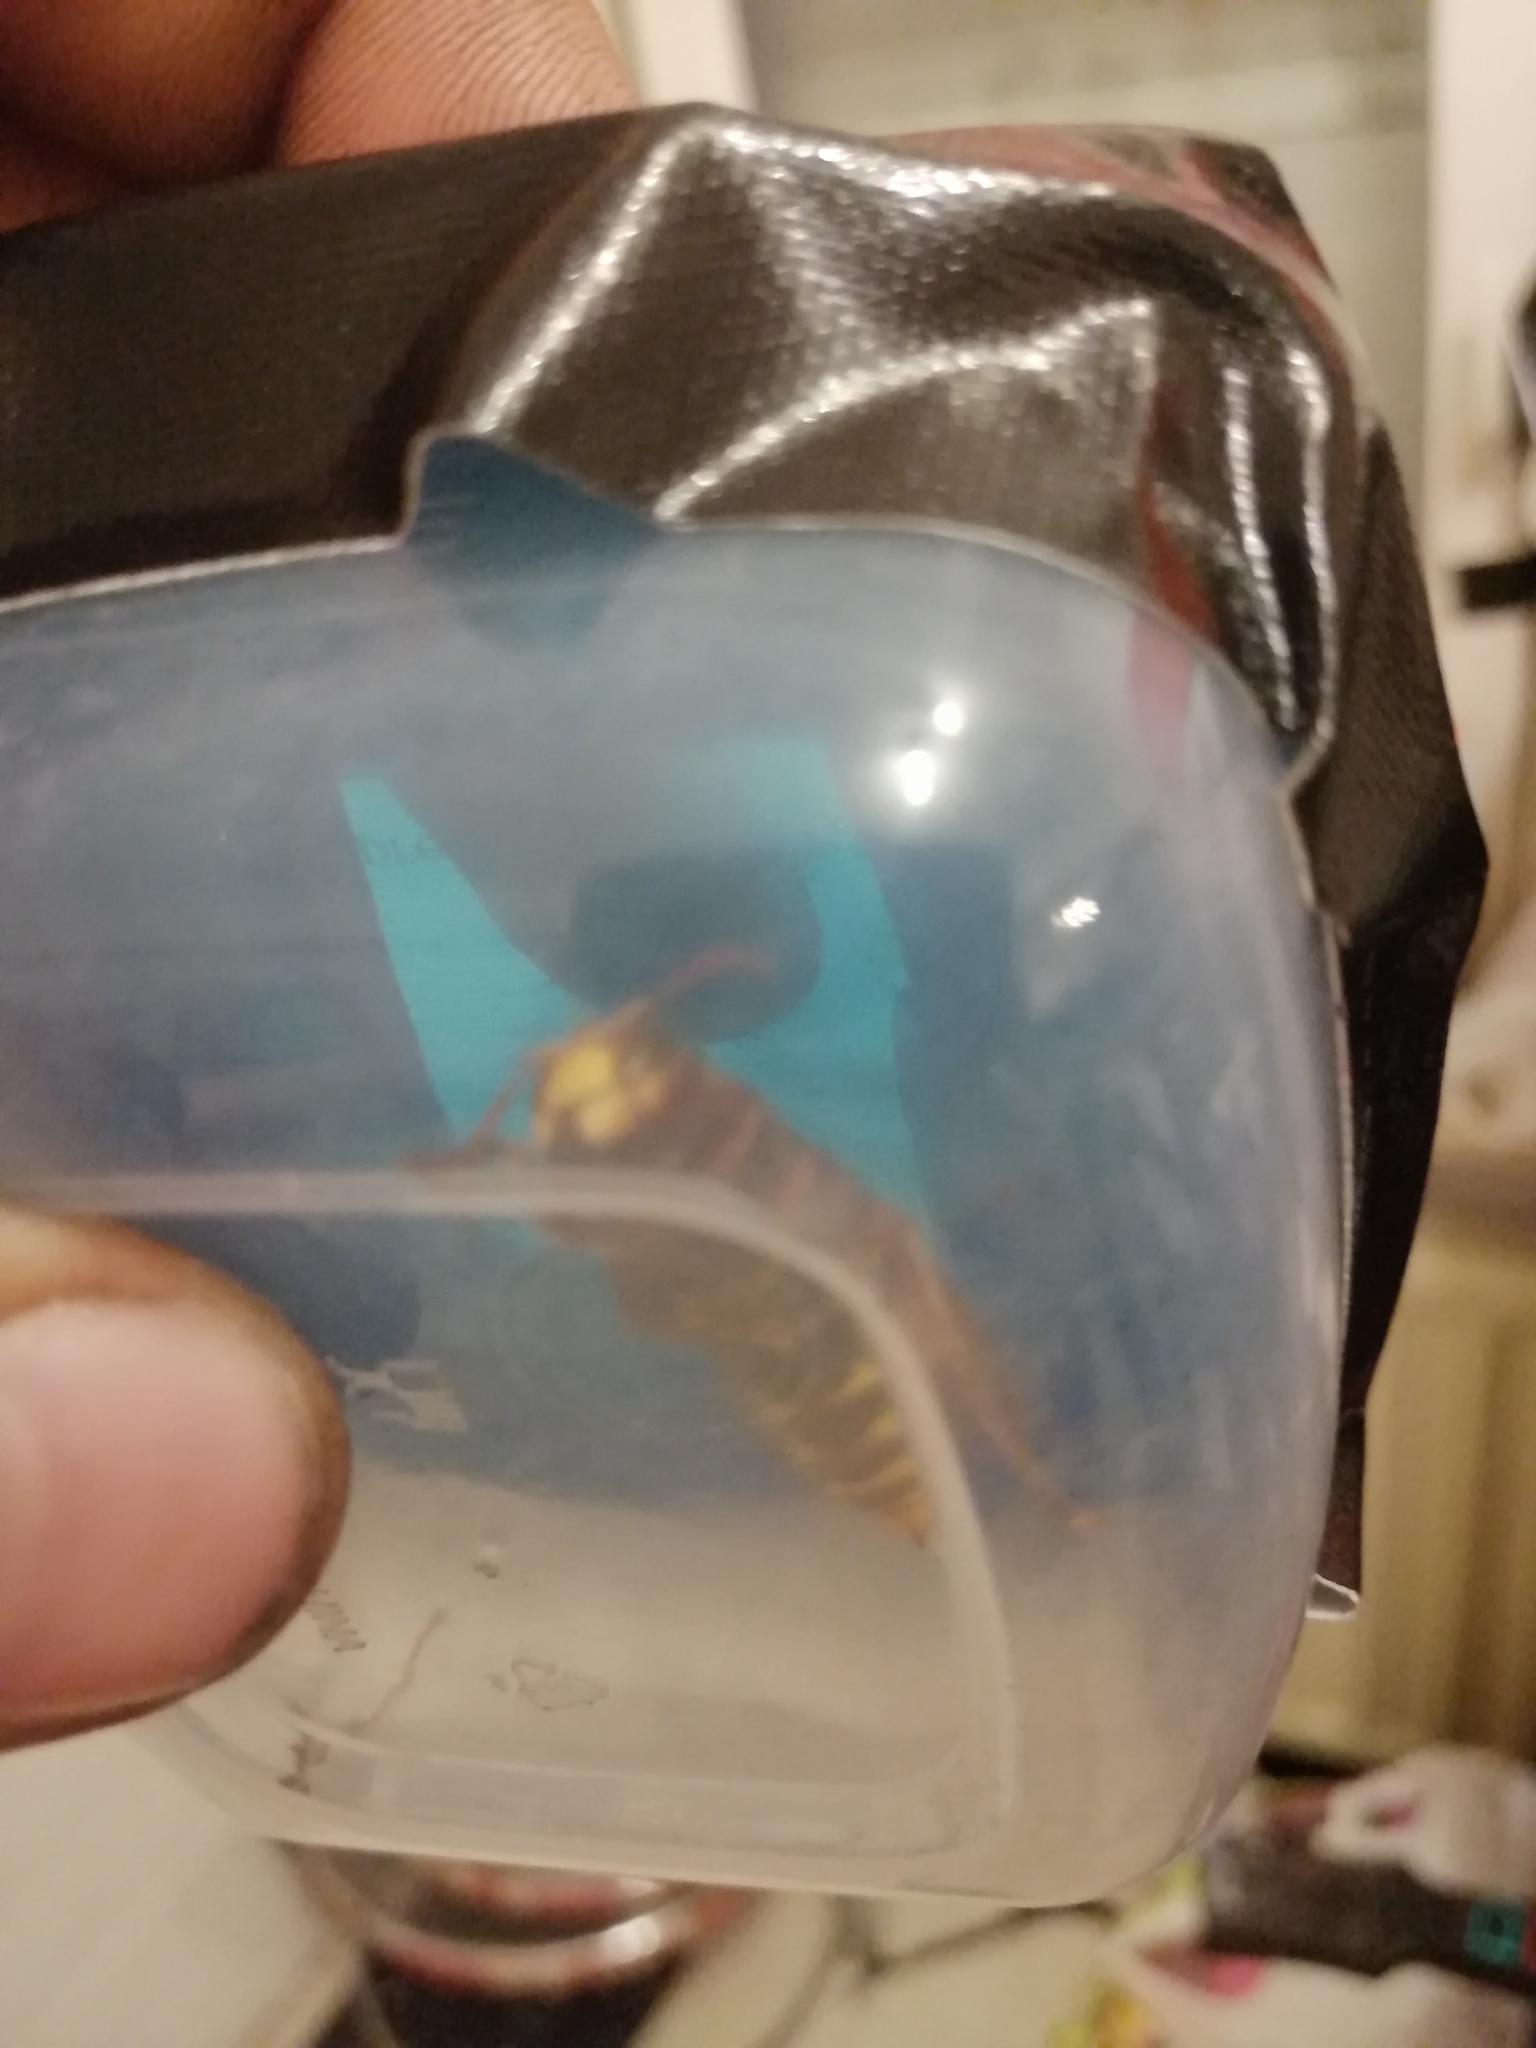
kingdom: Animalia
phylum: Arthropoda
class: Insecta
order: Hymenoptera
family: Vespidae
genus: Vespa
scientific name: Vespa crabro
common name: Hornet
